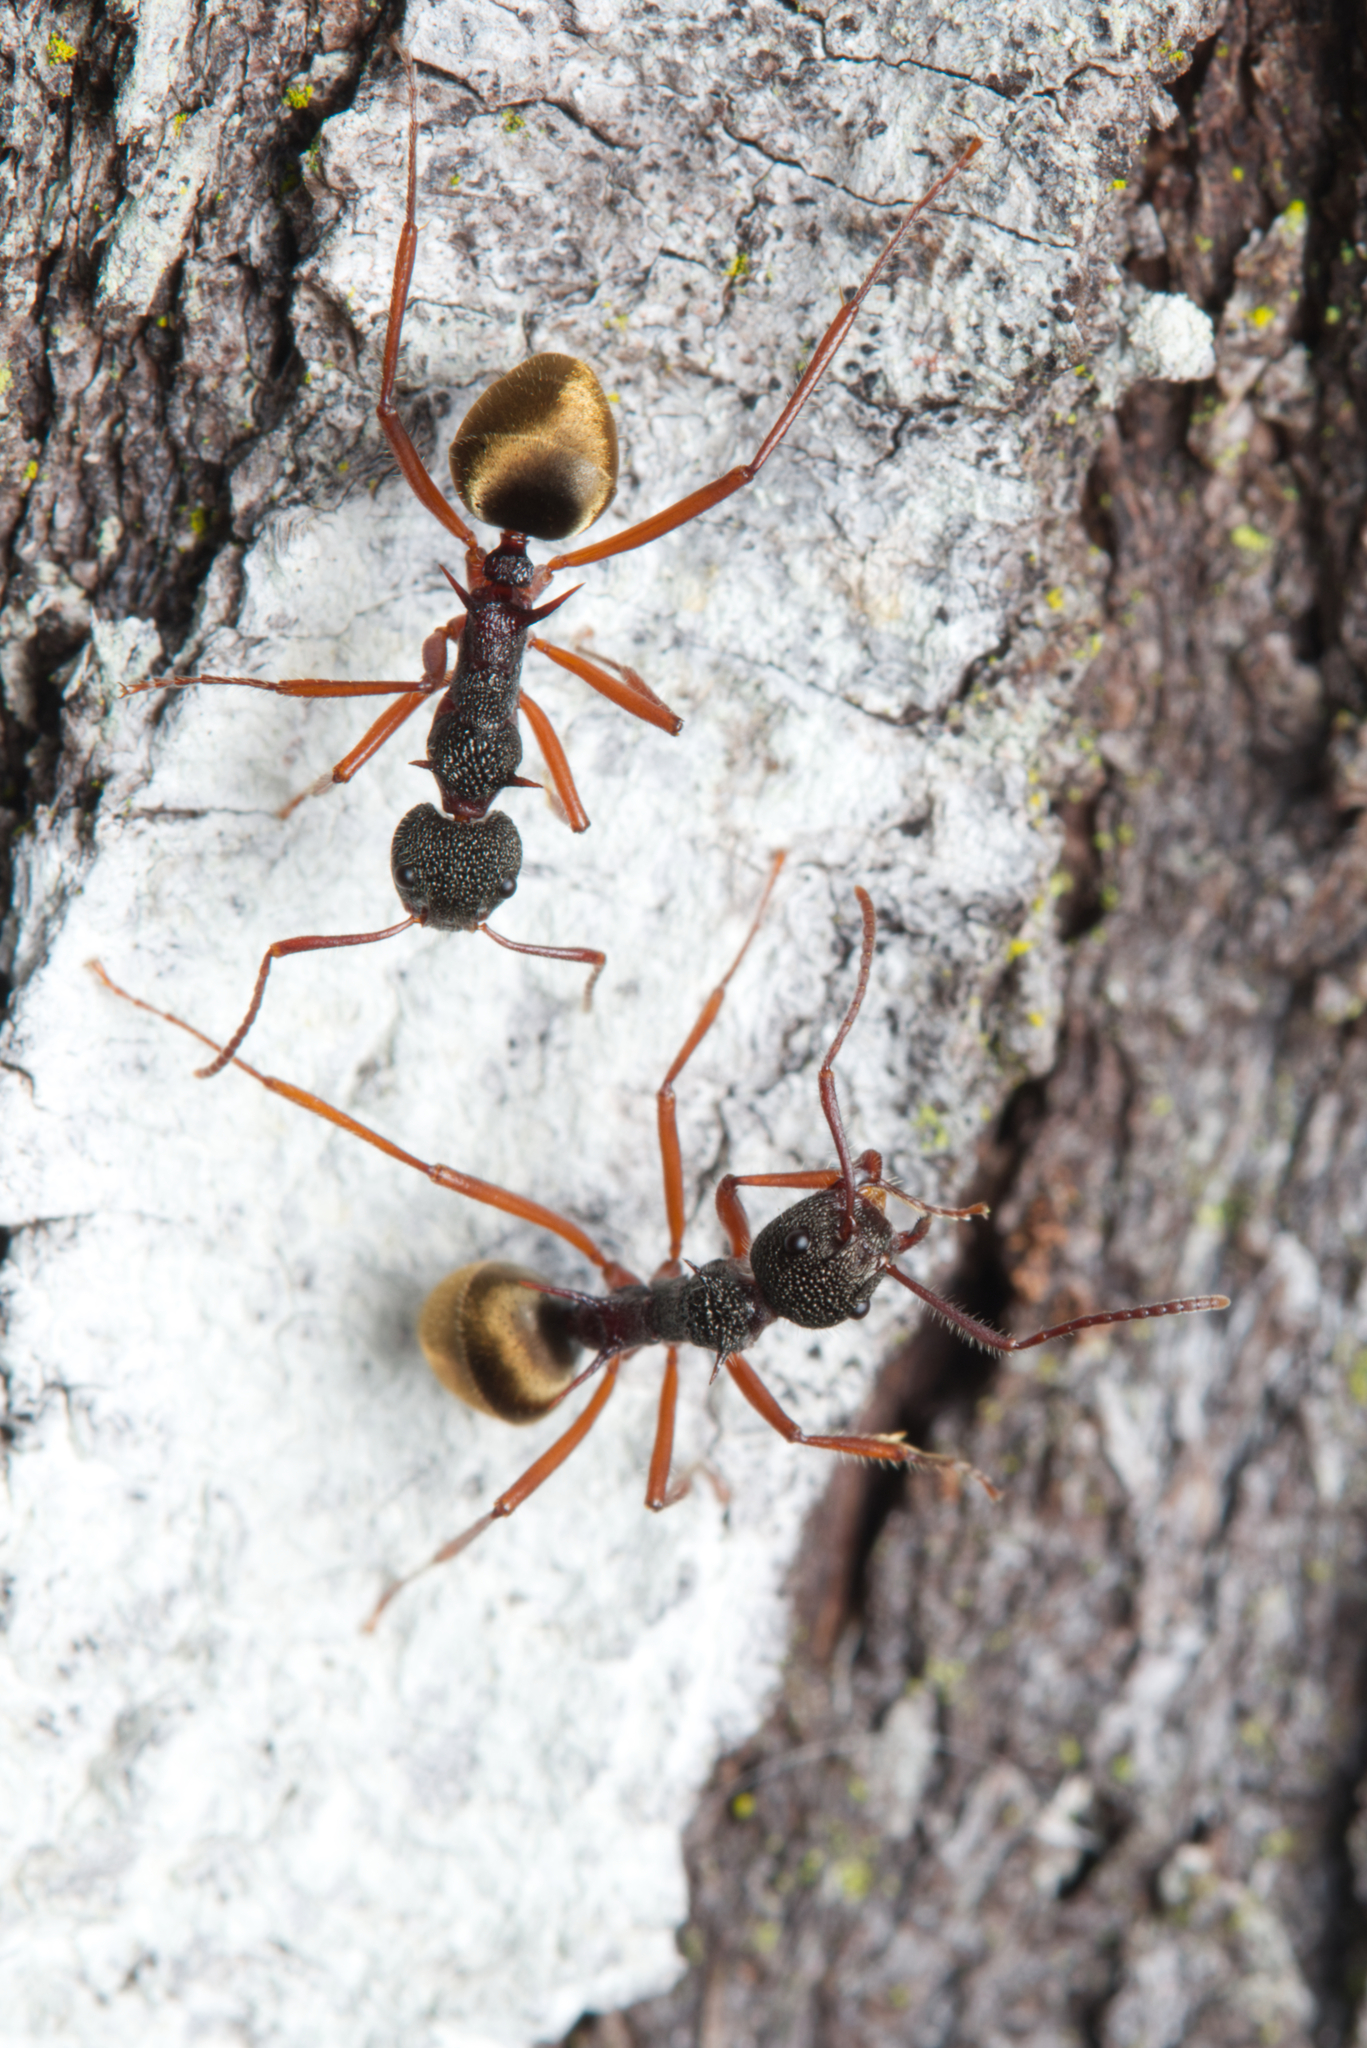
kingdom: Animalia
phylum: Arthropoda
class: Insecta
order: Hymenoptera
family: Formicidae
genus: Dolichoderus
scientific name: Dolichoderus extensispinus
